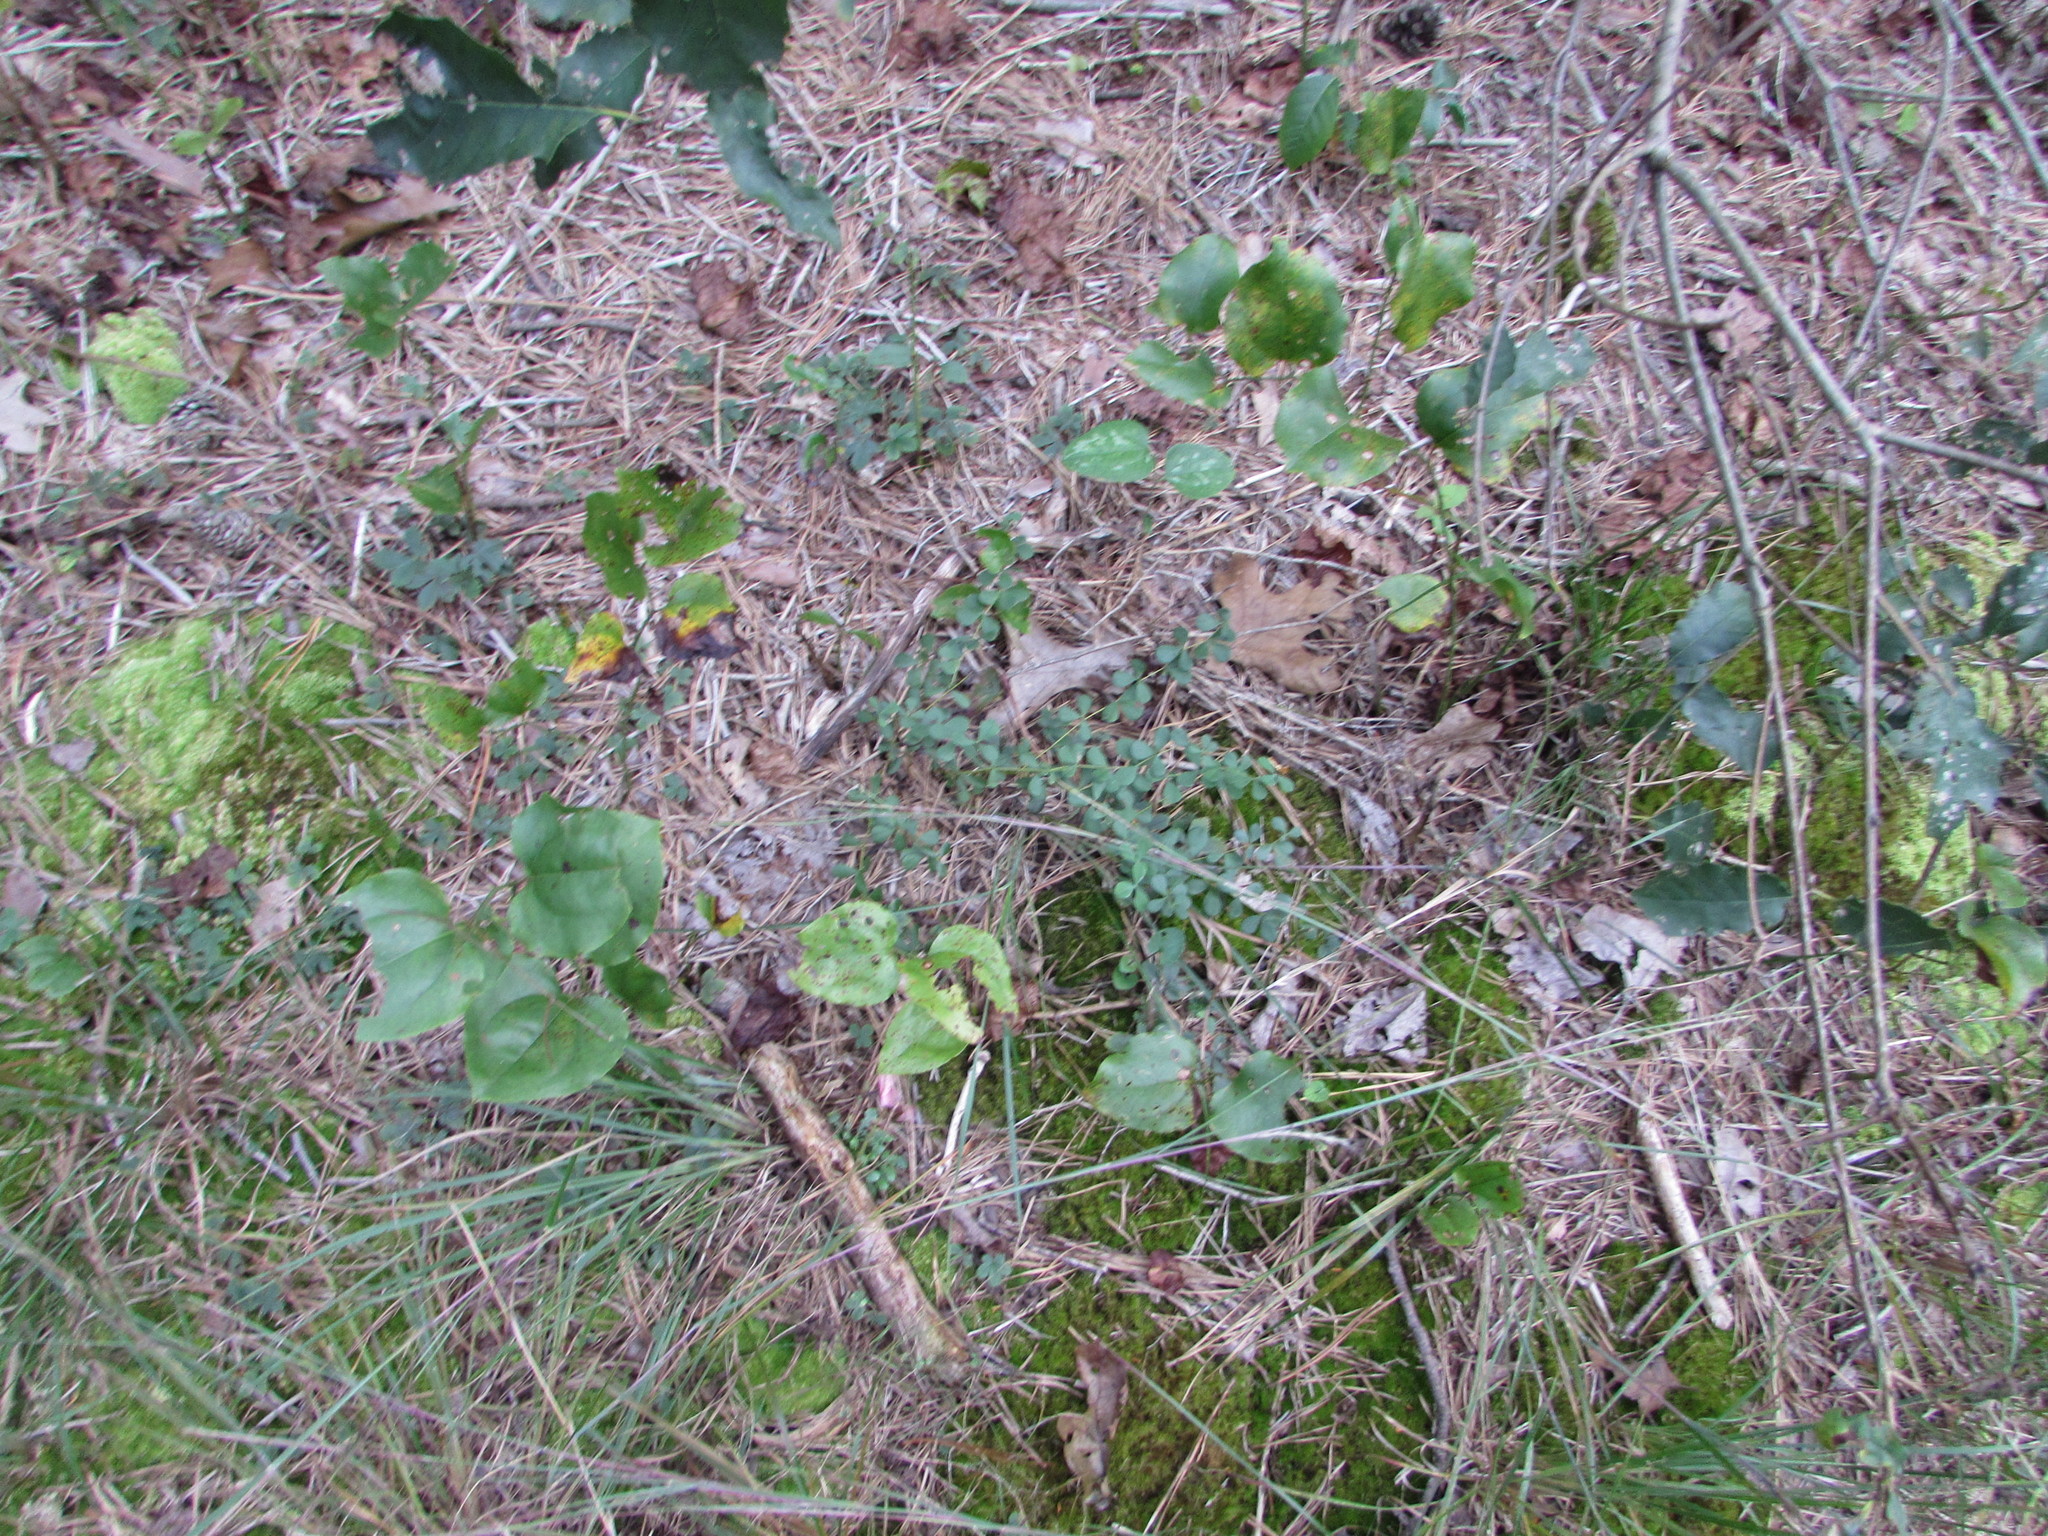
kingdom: Plantae
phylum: Tracheophyta
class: Magnoliopsida
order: Fabales
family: Fabaceae
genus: Baptisia
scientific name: Baptisia tinctoria
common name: Wild indigo
